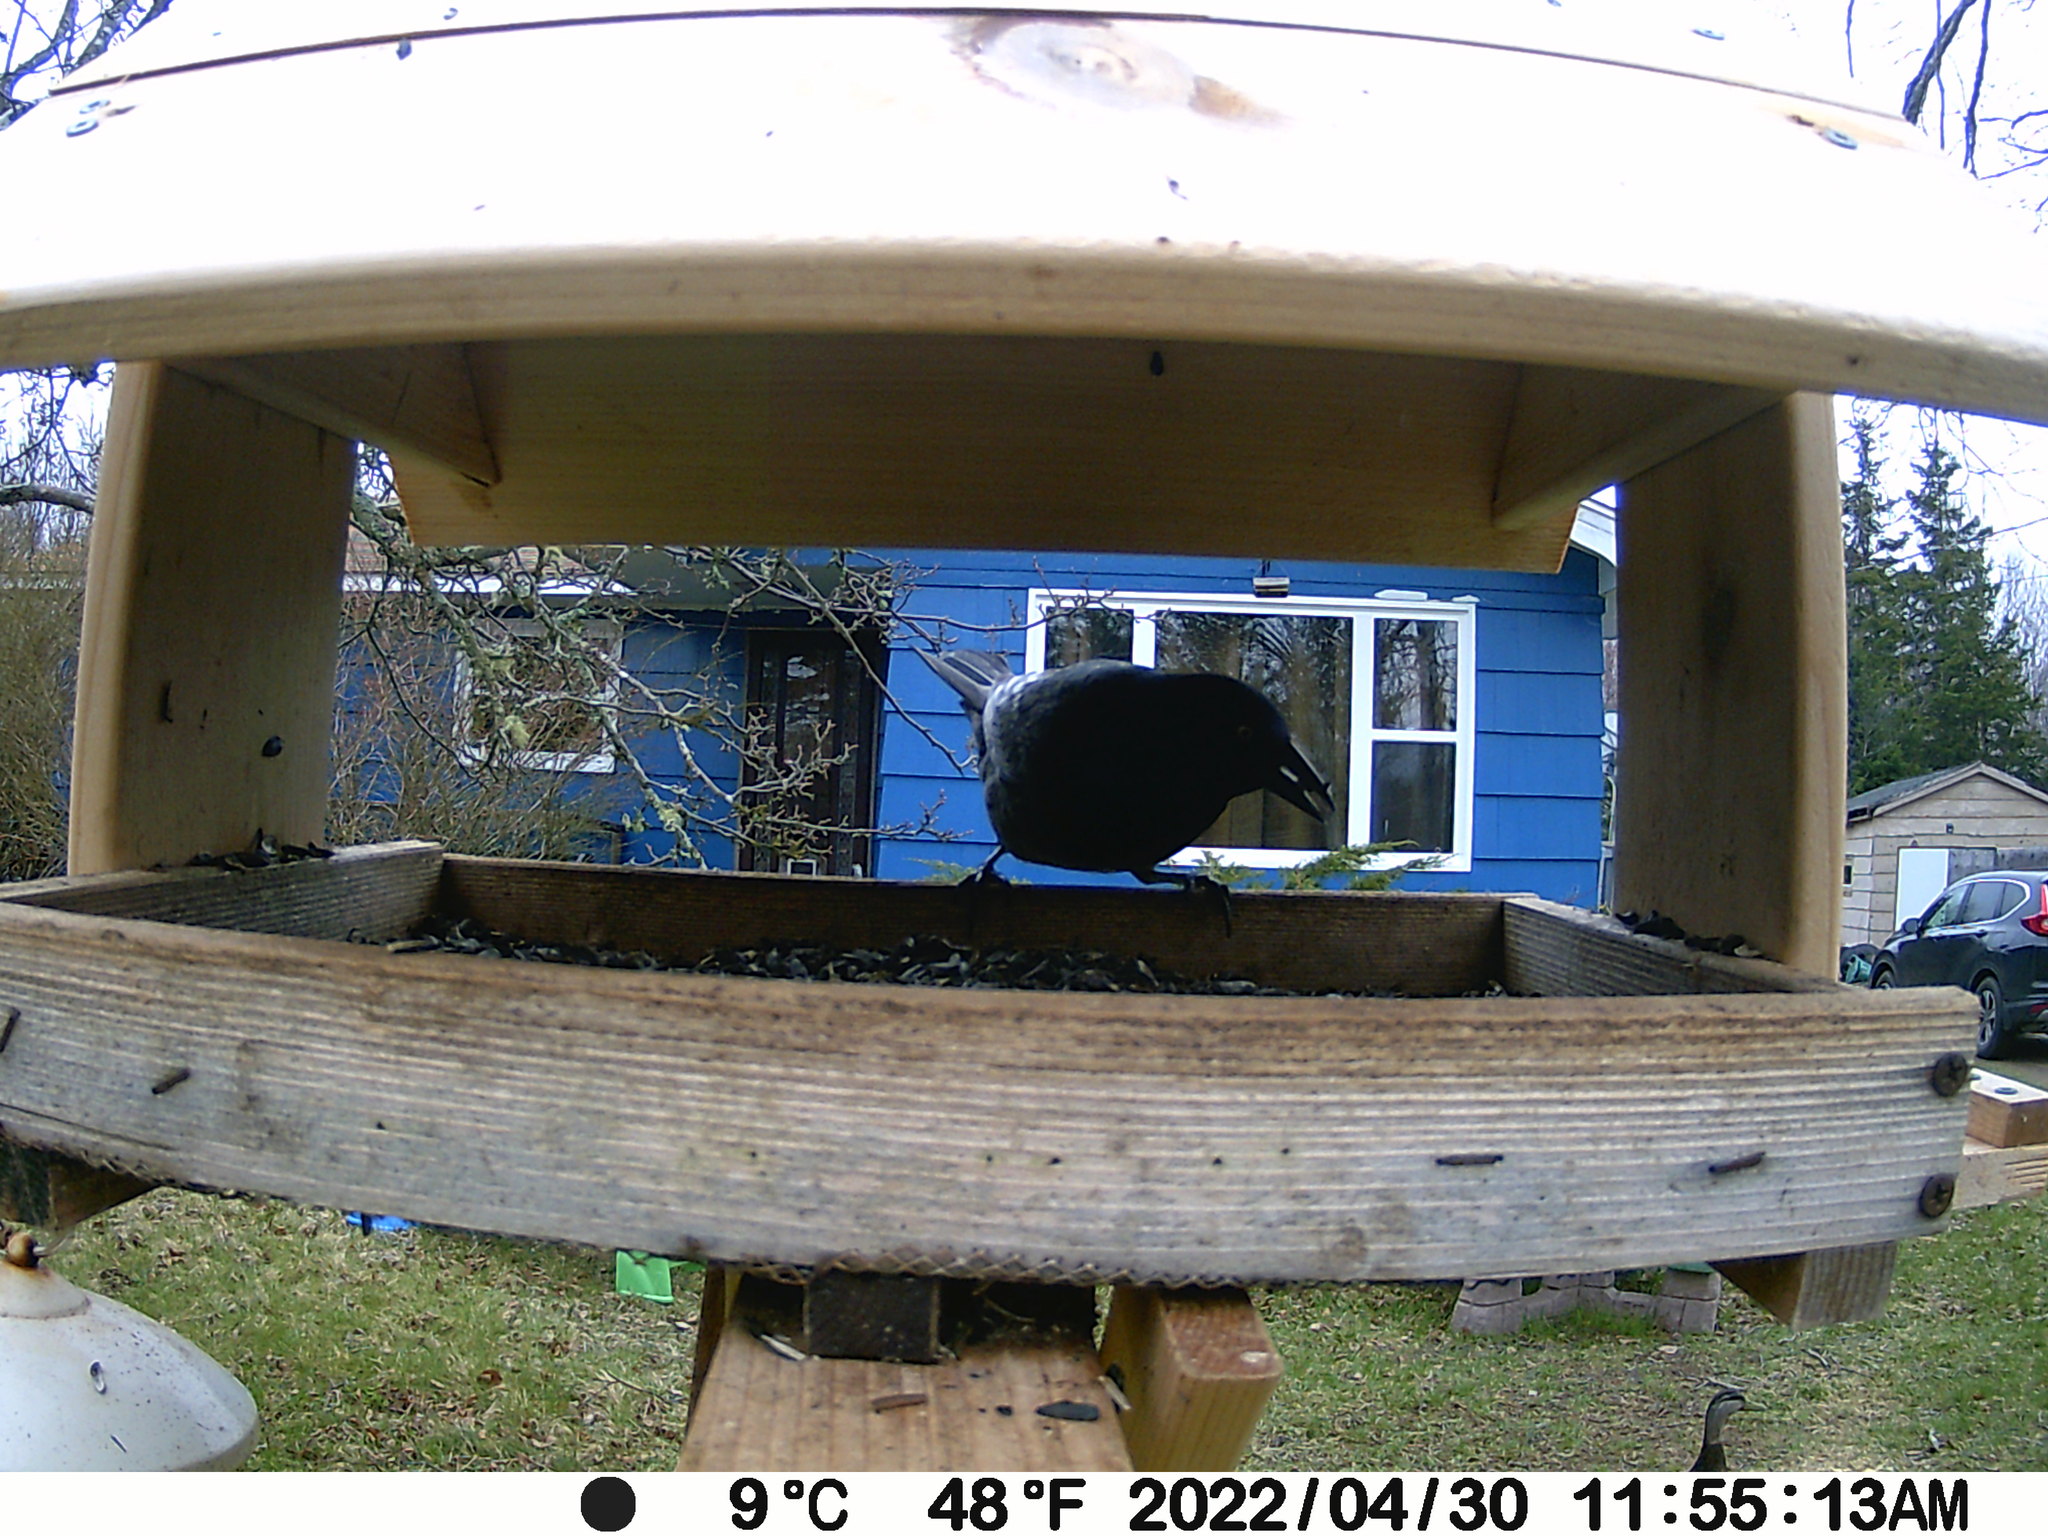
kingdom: Animalia
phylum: Chordata
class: Aves
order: Anseriformes
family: Anatidae
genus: Anas
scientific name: Anas rubripes
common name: American black duck
